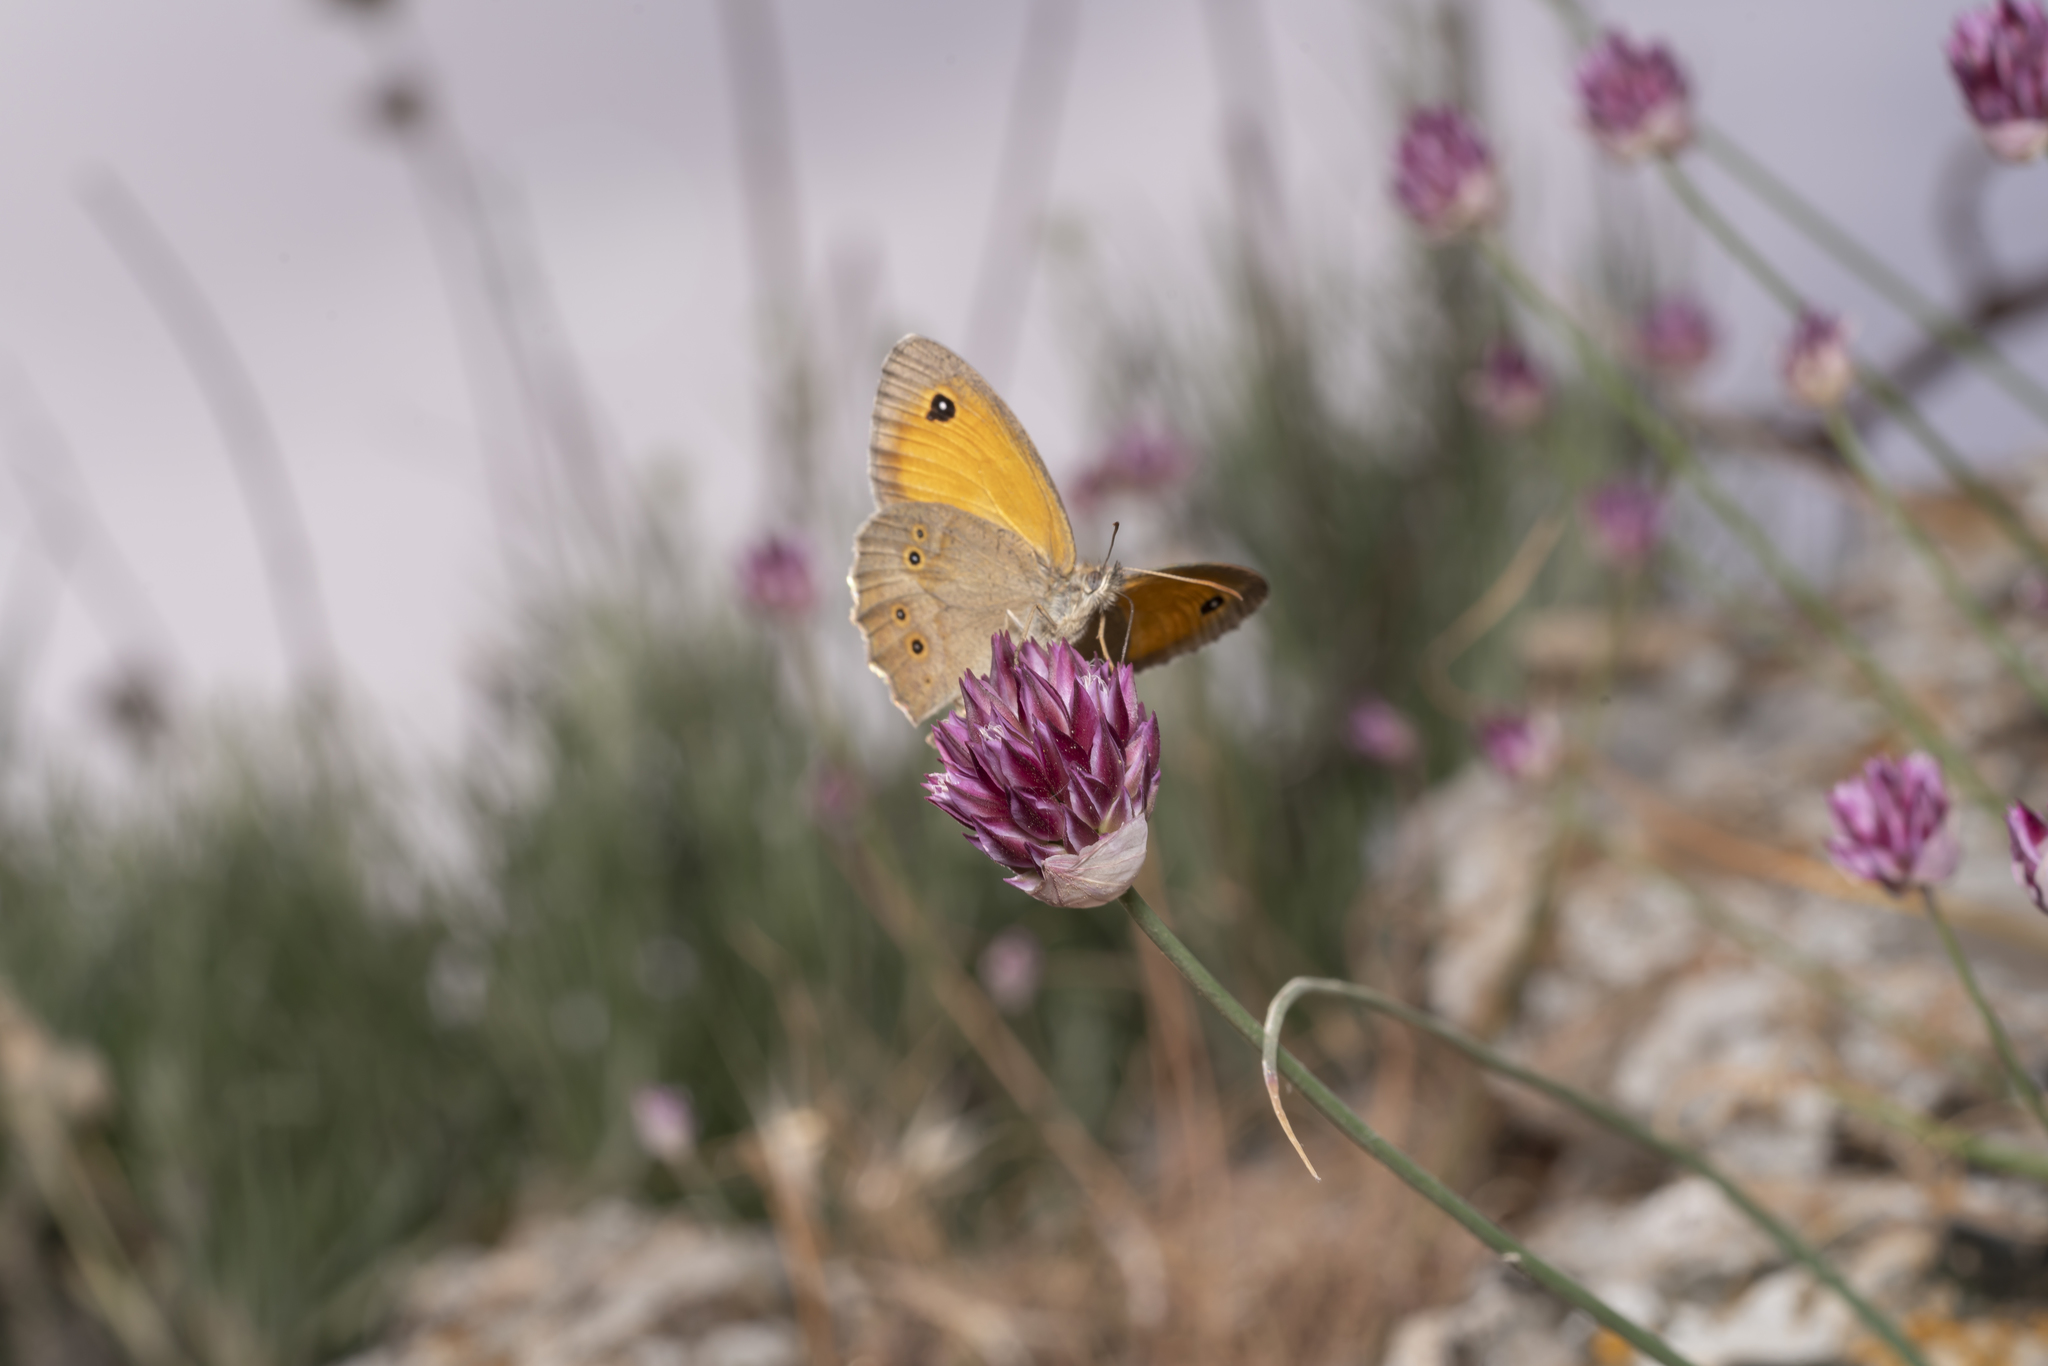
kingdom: Plantae
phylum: Tracheophyta
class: Liliopsida
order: Asparagales
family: Amaryllidaceae
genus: Allium
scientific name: Allium junceum
